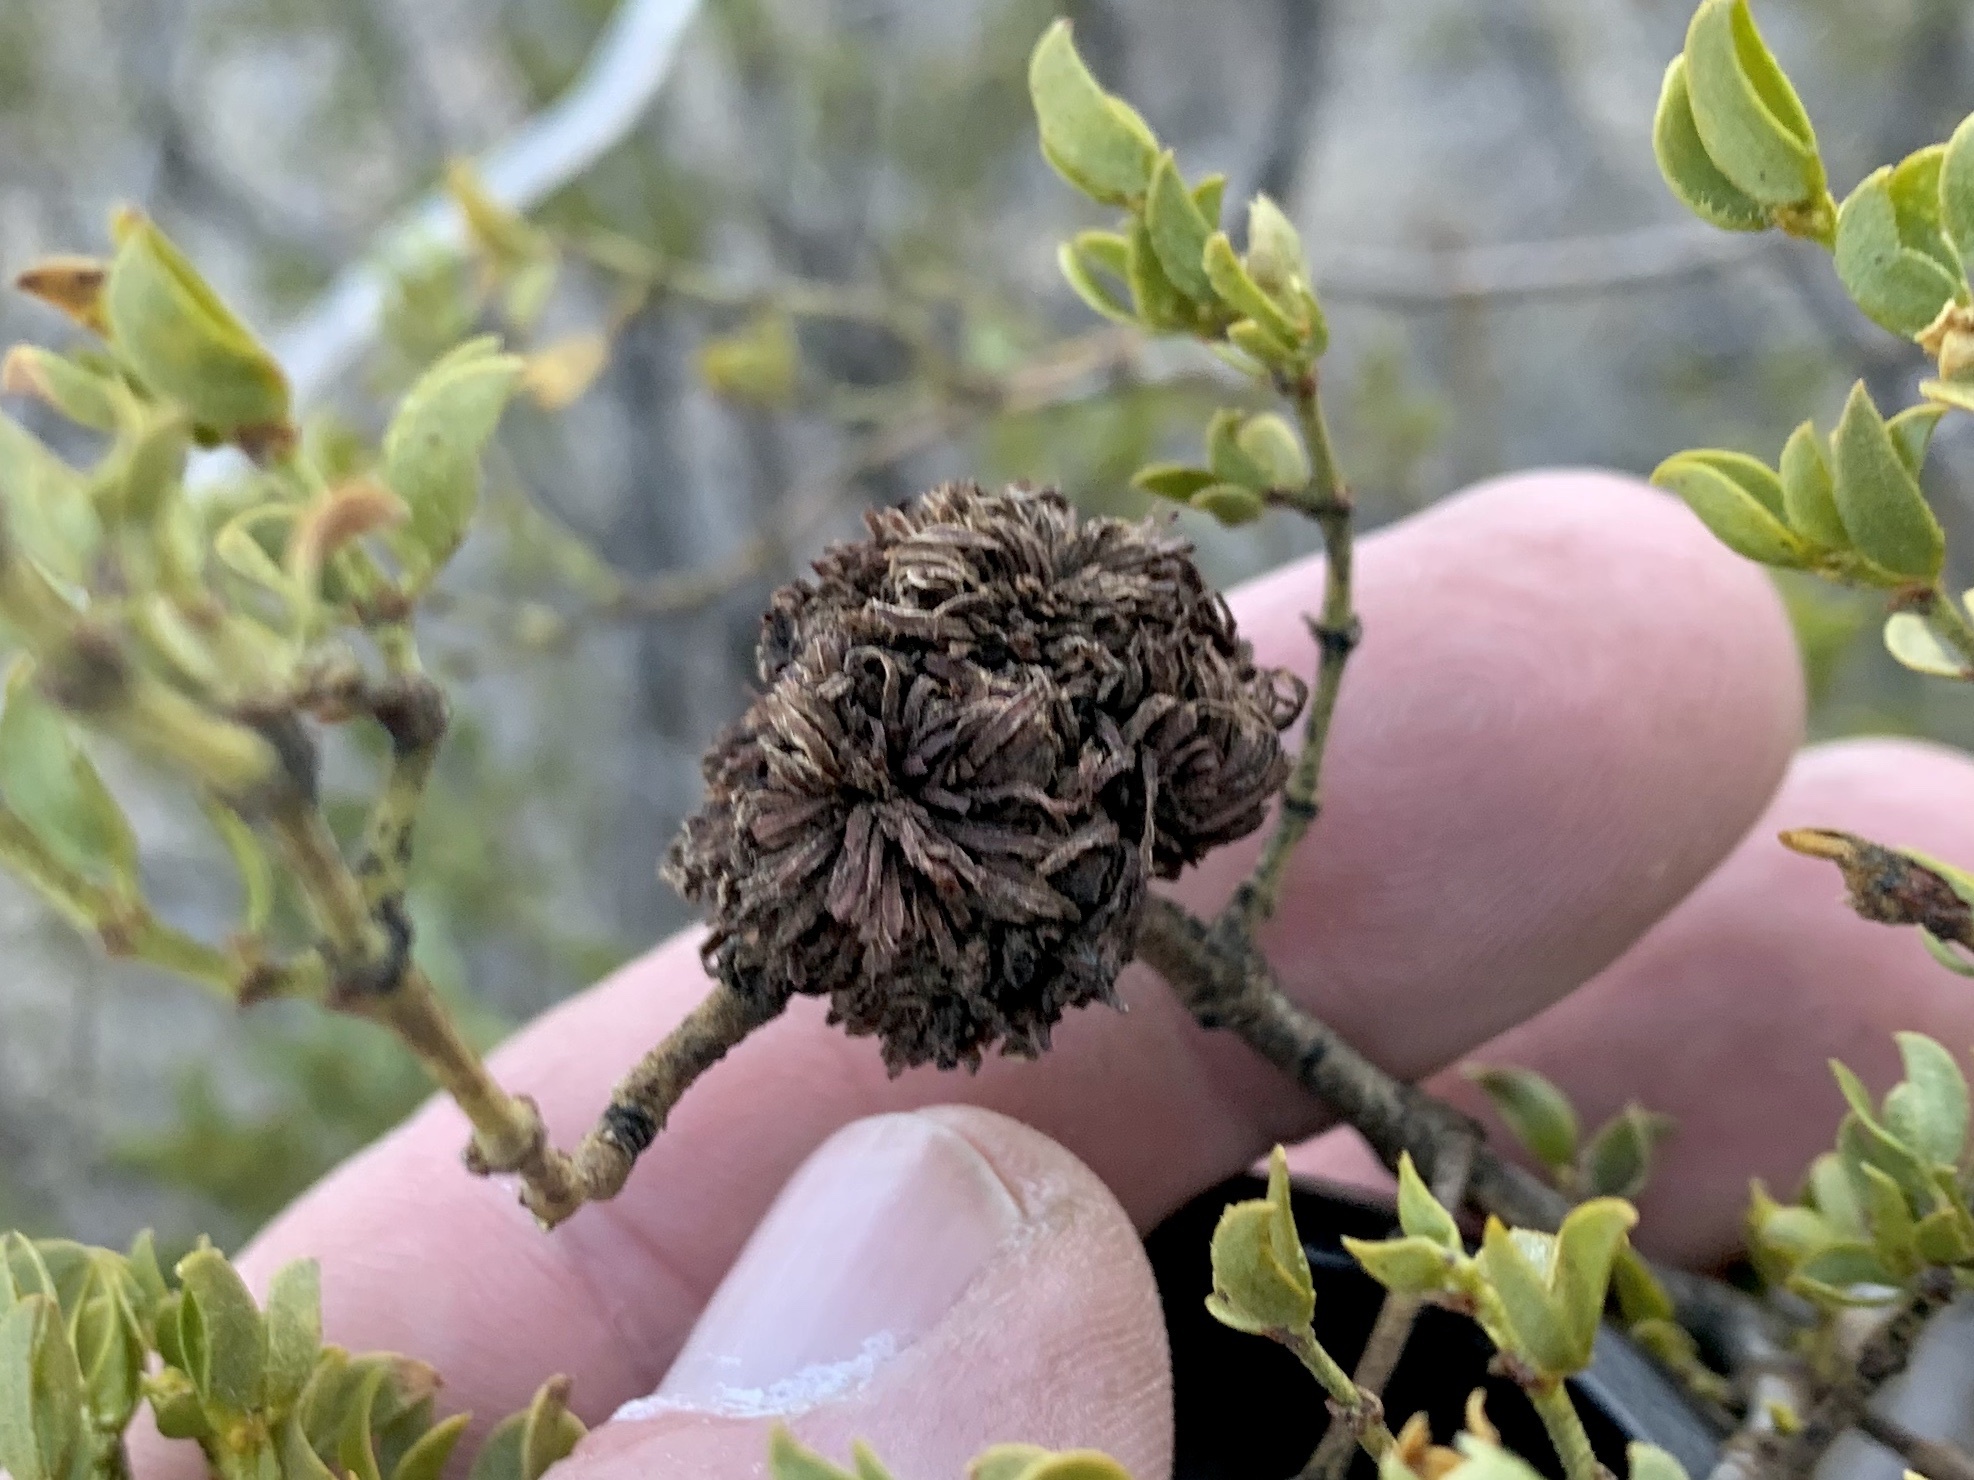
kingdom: Animalia
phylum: Arthropoda
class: Insecta
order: Diptera
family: Cecidomyiidae
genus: Asphondylia
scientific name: Asphondylia auripila
